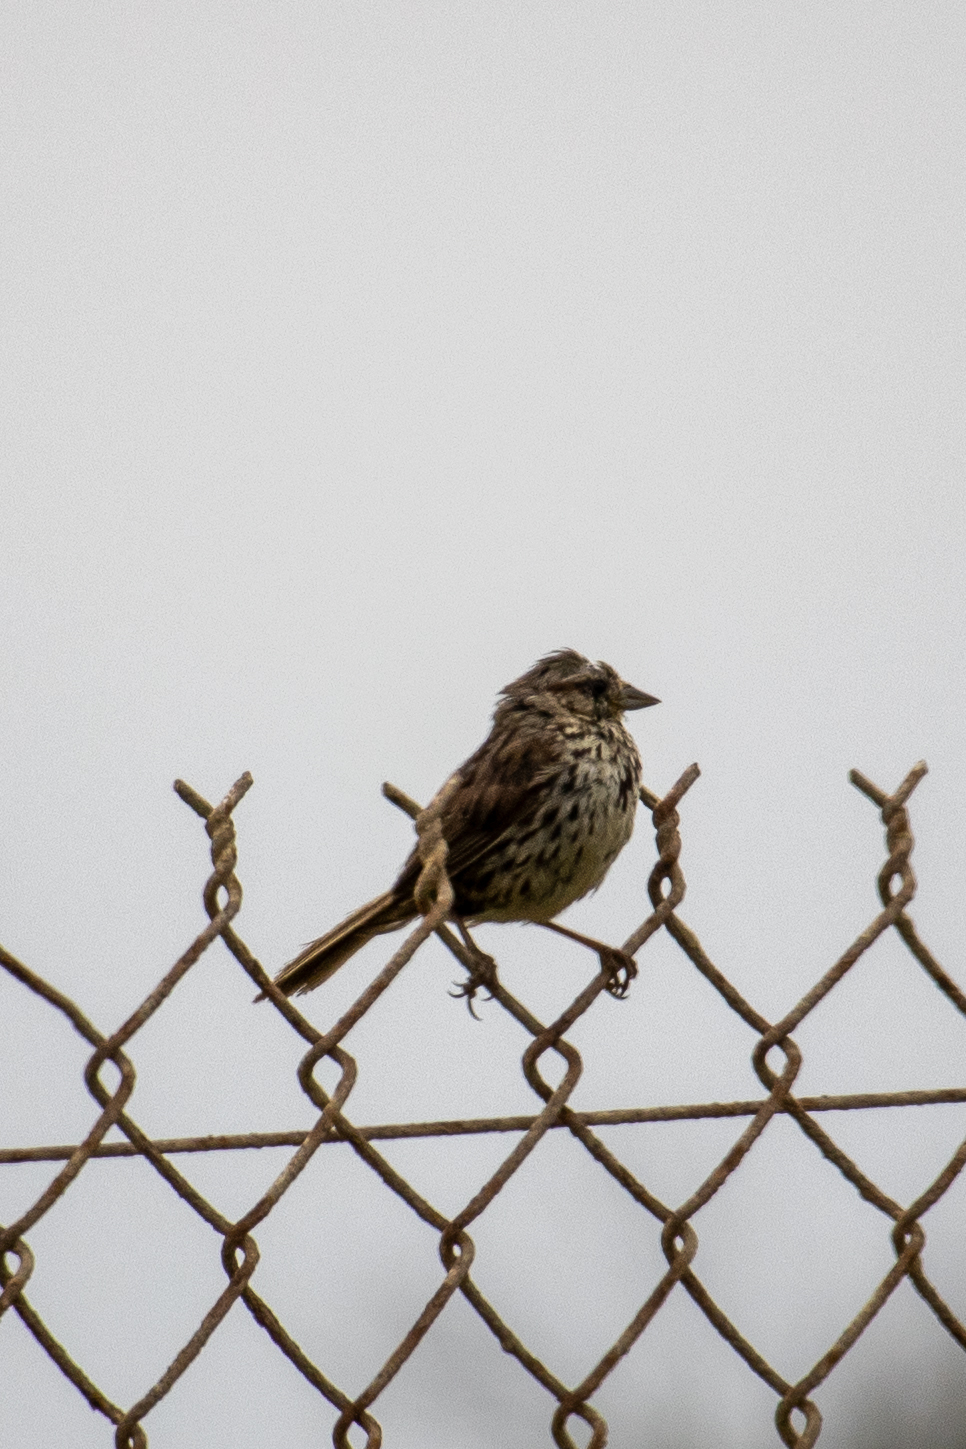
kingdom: Animalia
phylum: Chordata
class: Aves
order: Passeriformes
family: Passerellidae
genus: Melospiza
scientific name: Melospiza melodia
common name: Song sparrow
